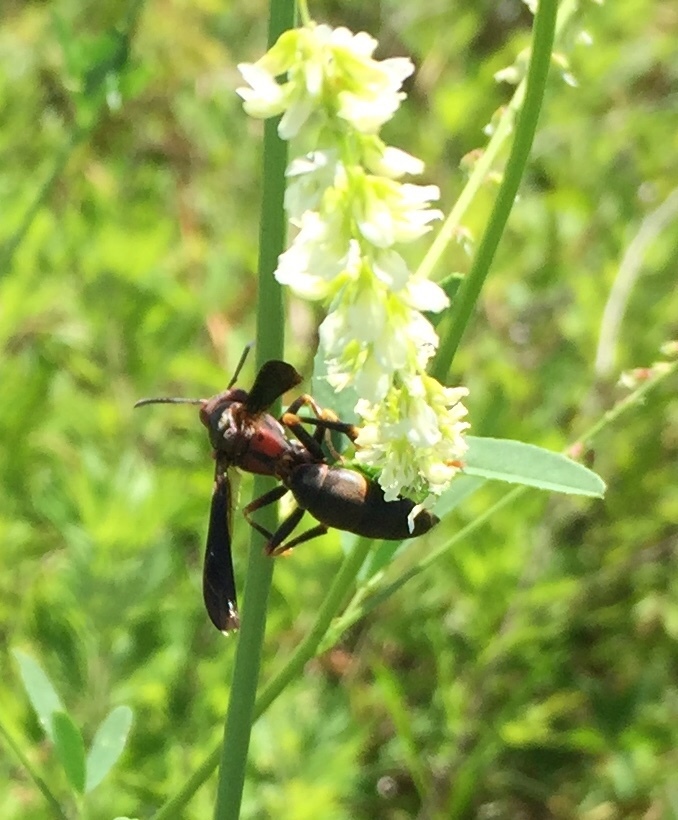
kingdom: Animalia
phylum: Arthropoda
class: Insecta
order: Hymenoptera
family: Eumenidae
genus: Polistes
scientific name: Polistes metricus
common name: Metric paper wasp
